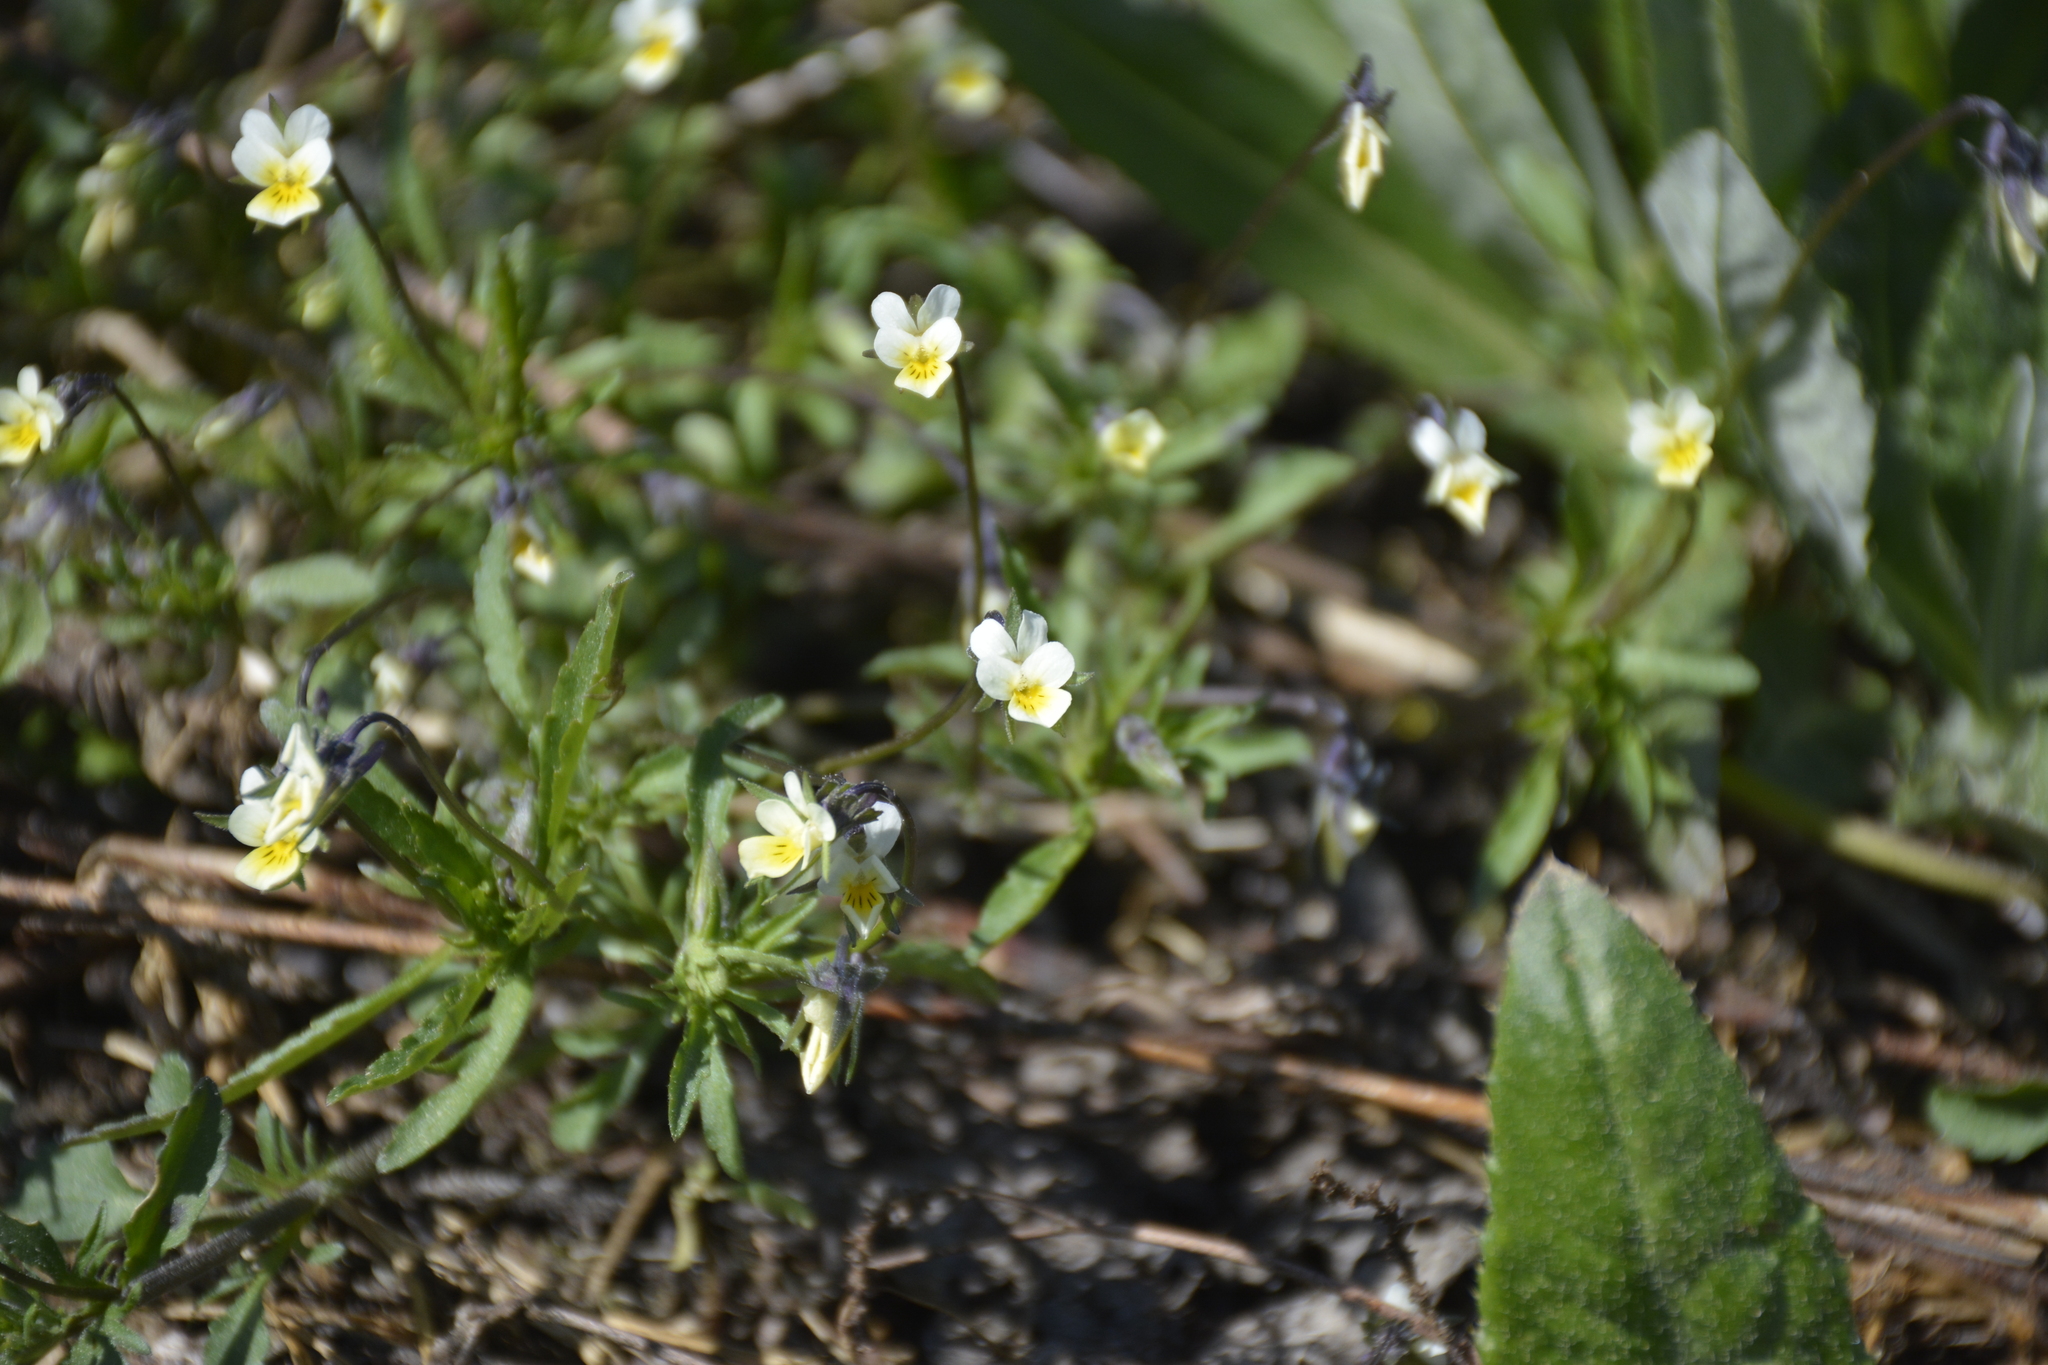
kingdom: Plantae
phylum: Tracheophyta
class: Magnoliopsida
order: Malpighiales
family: Violaceae
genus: Viola
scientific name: Viola arvensis
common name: Field pansy
